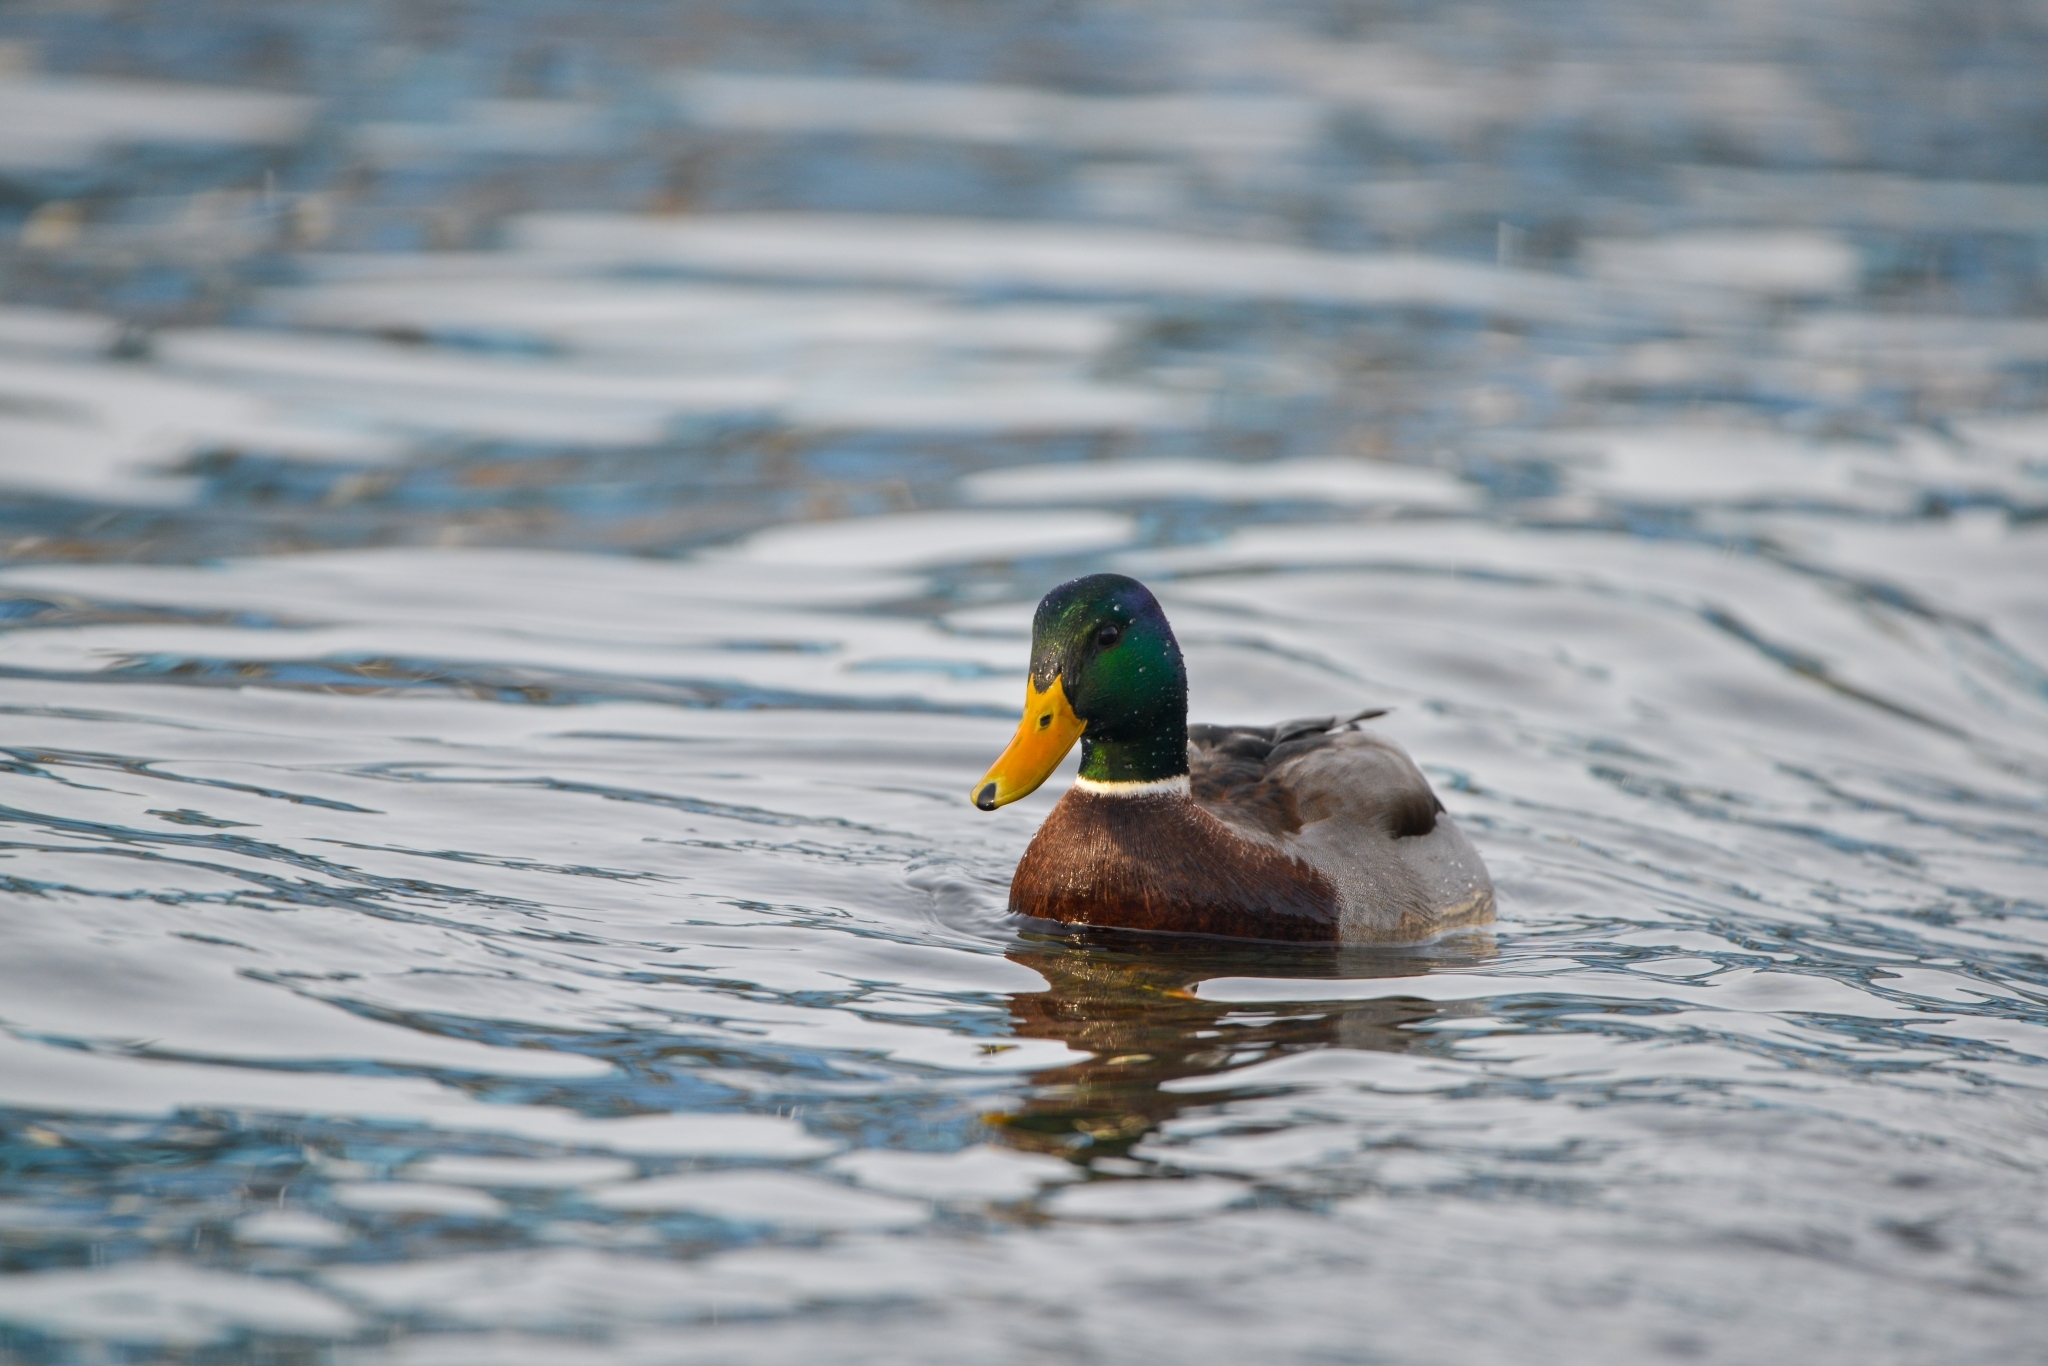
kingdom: Animalia
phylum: Chordata
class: Aves
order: Anseriformes
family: Anatidae
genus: Anas
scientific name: Anas platyrhynchos
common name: Mallard
